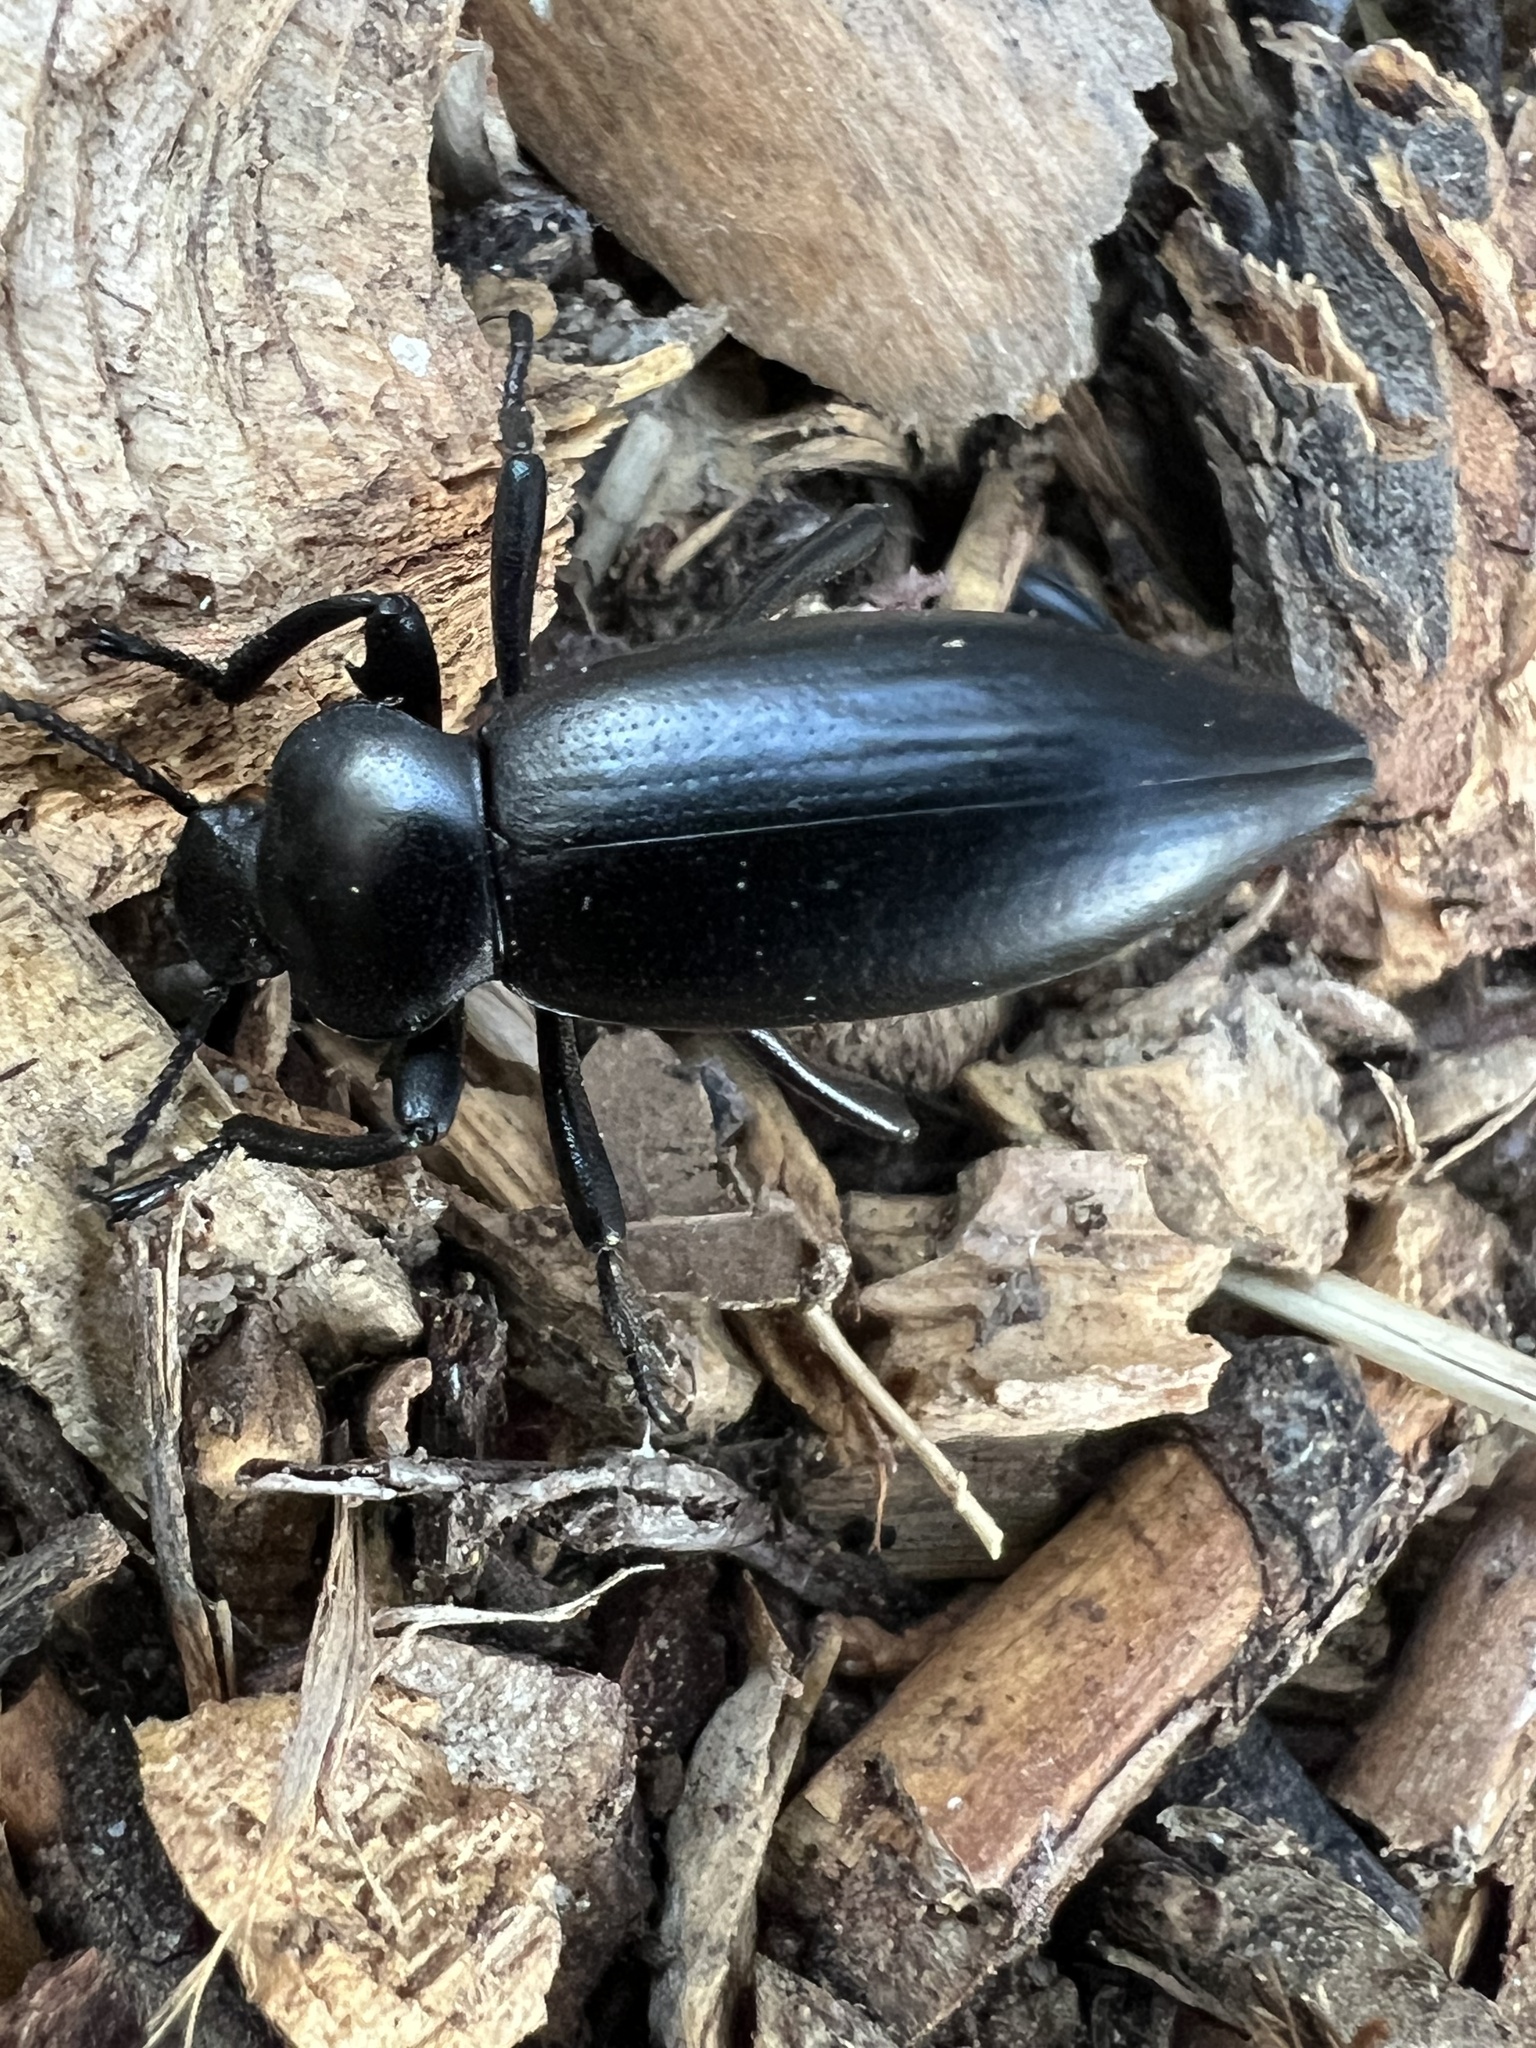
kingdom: Animalia
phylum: Arthropoda
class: Insecta
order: Coleoptera
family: Tenebrionidae
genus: Eleodes
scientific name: Eleodes dentipes
